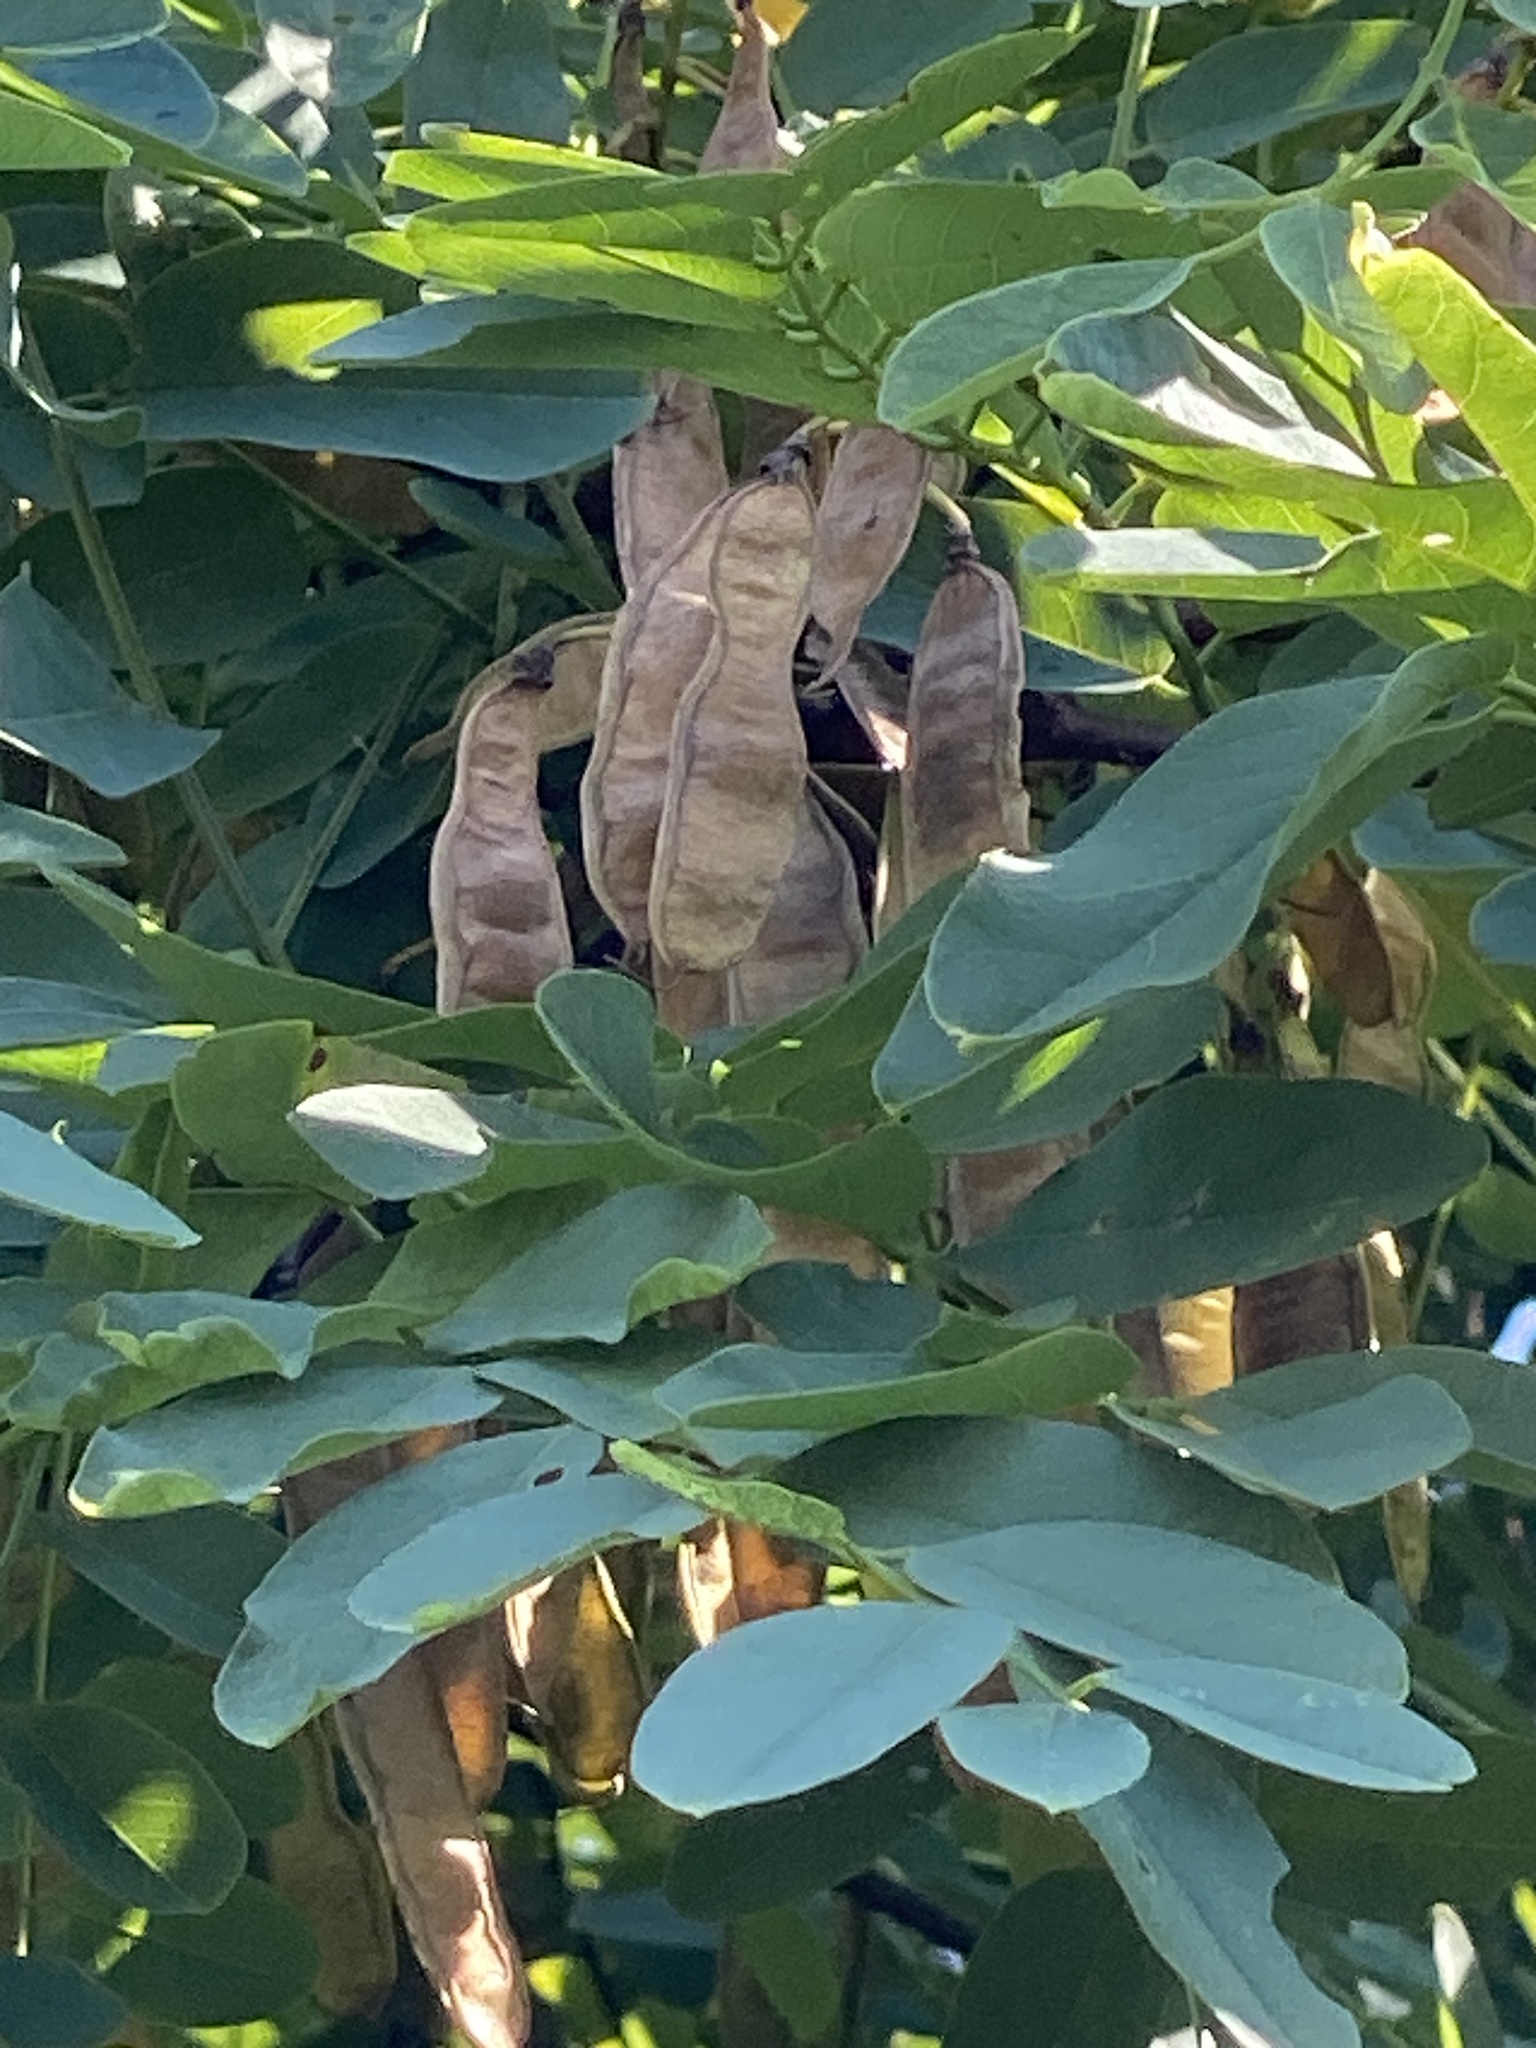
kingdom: Plantae
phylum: Tracheophyta
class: Magnoliopsida
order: Fabales
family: Fabaceae
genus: Robinia
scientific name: Robinia pseudoacacia
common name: Black locust
